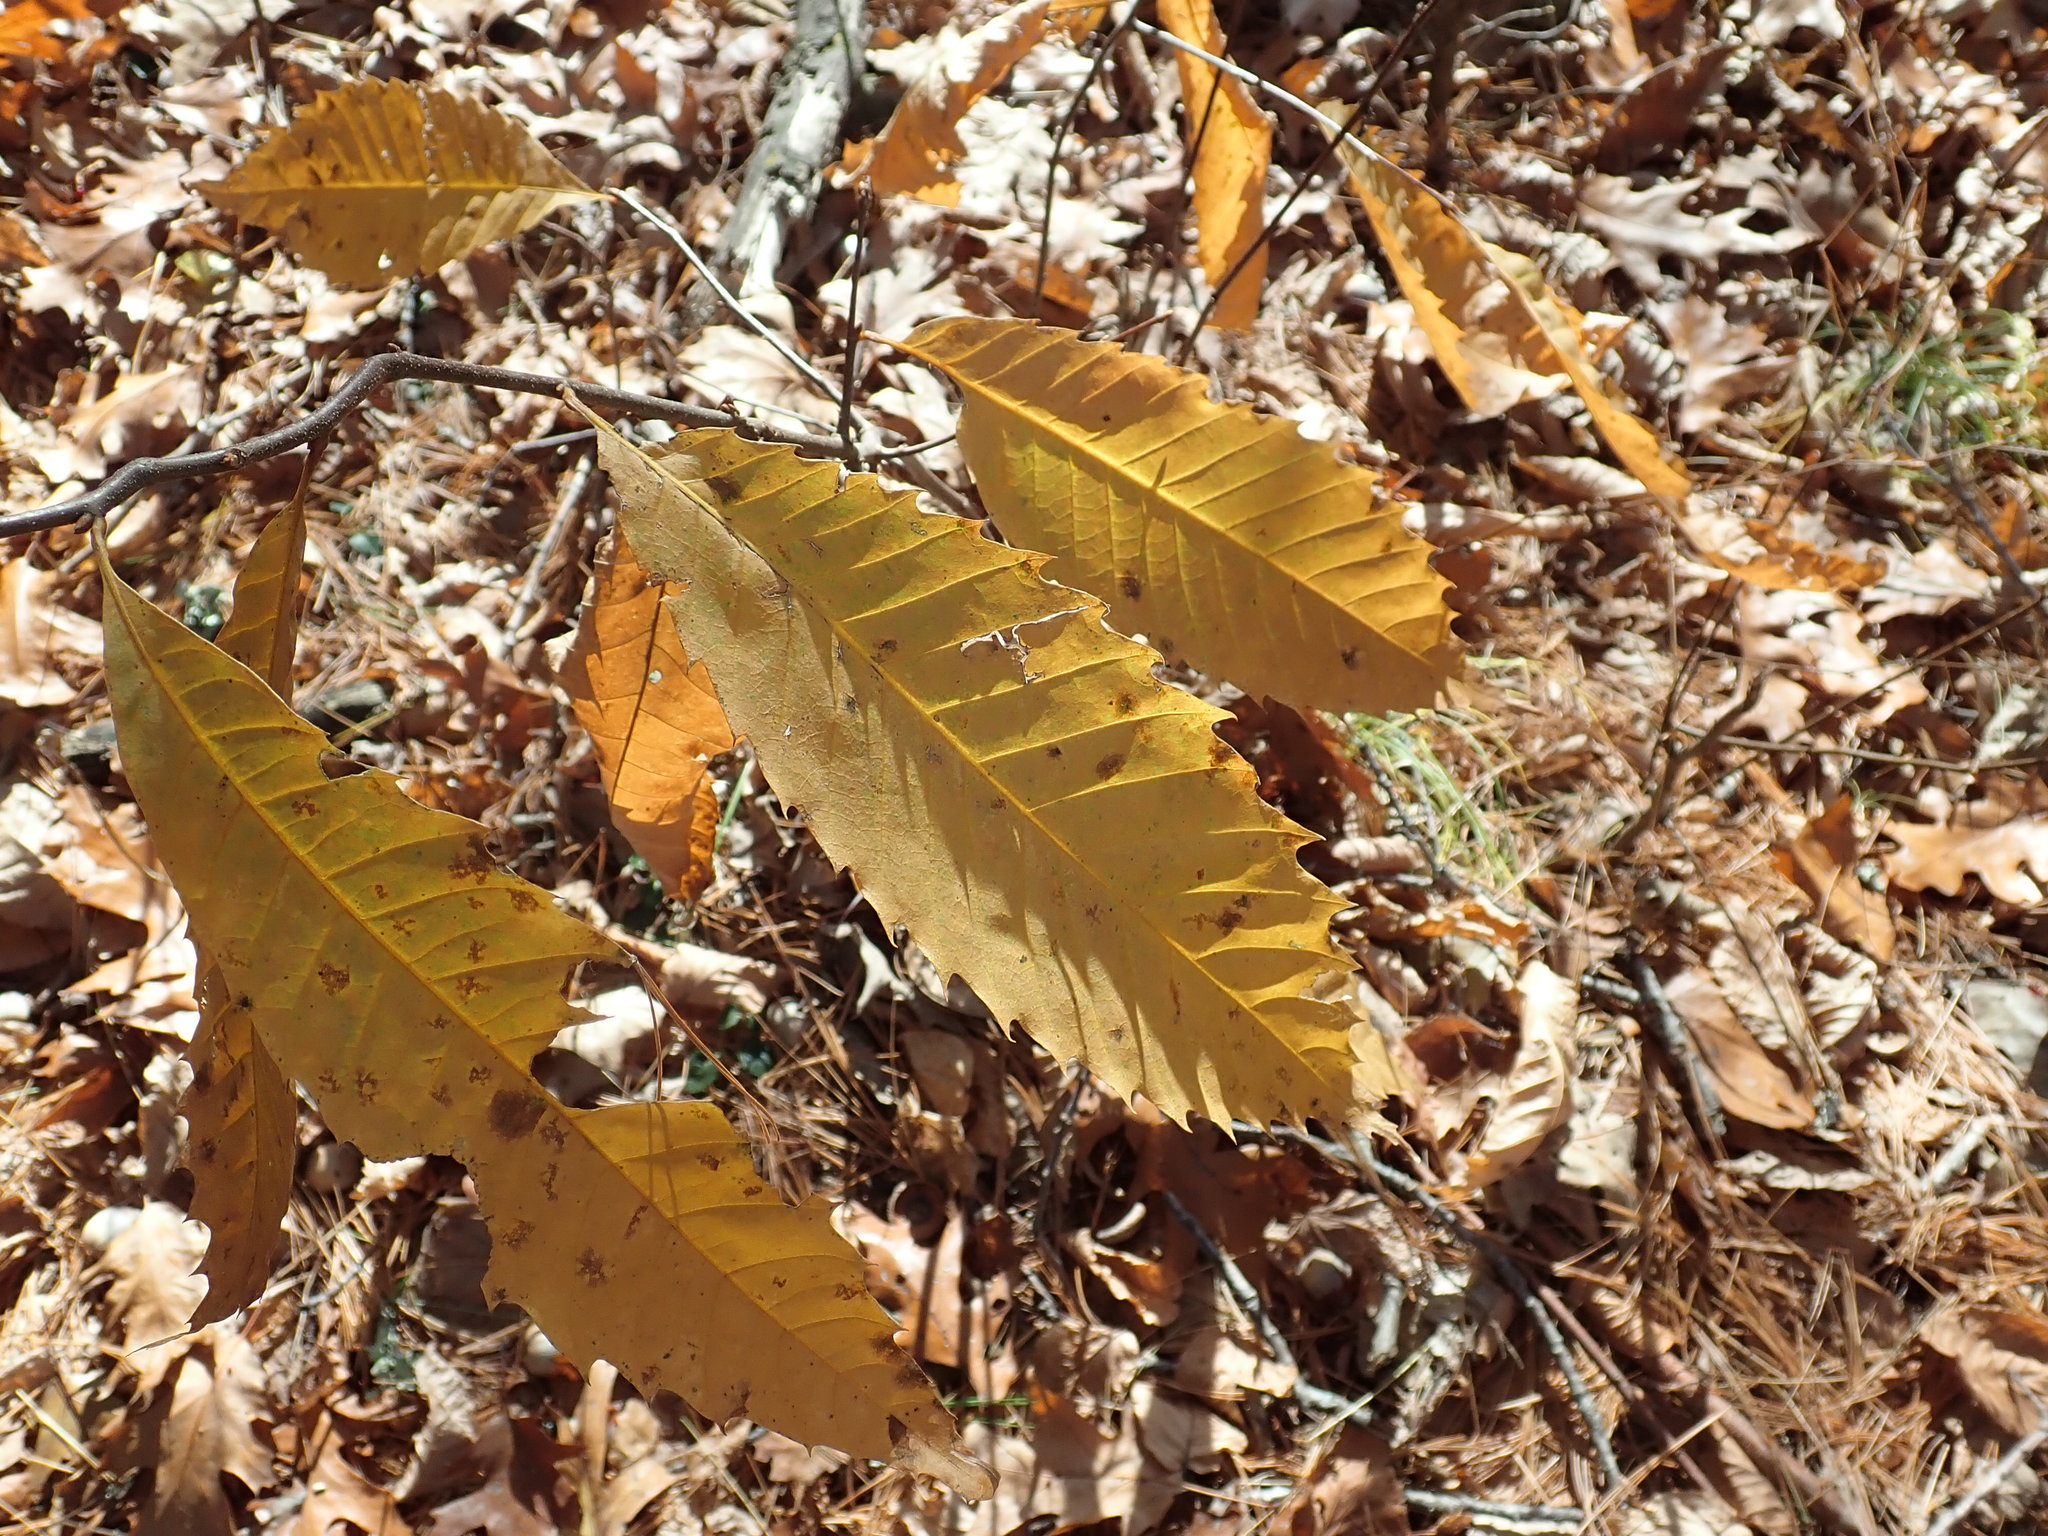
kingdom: Plantae
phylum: Tracheophyta
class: Magnoliopsida
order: Fagales
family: Fagaceae
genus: Castanea
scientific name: Castanea dentata
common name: American chestnut
